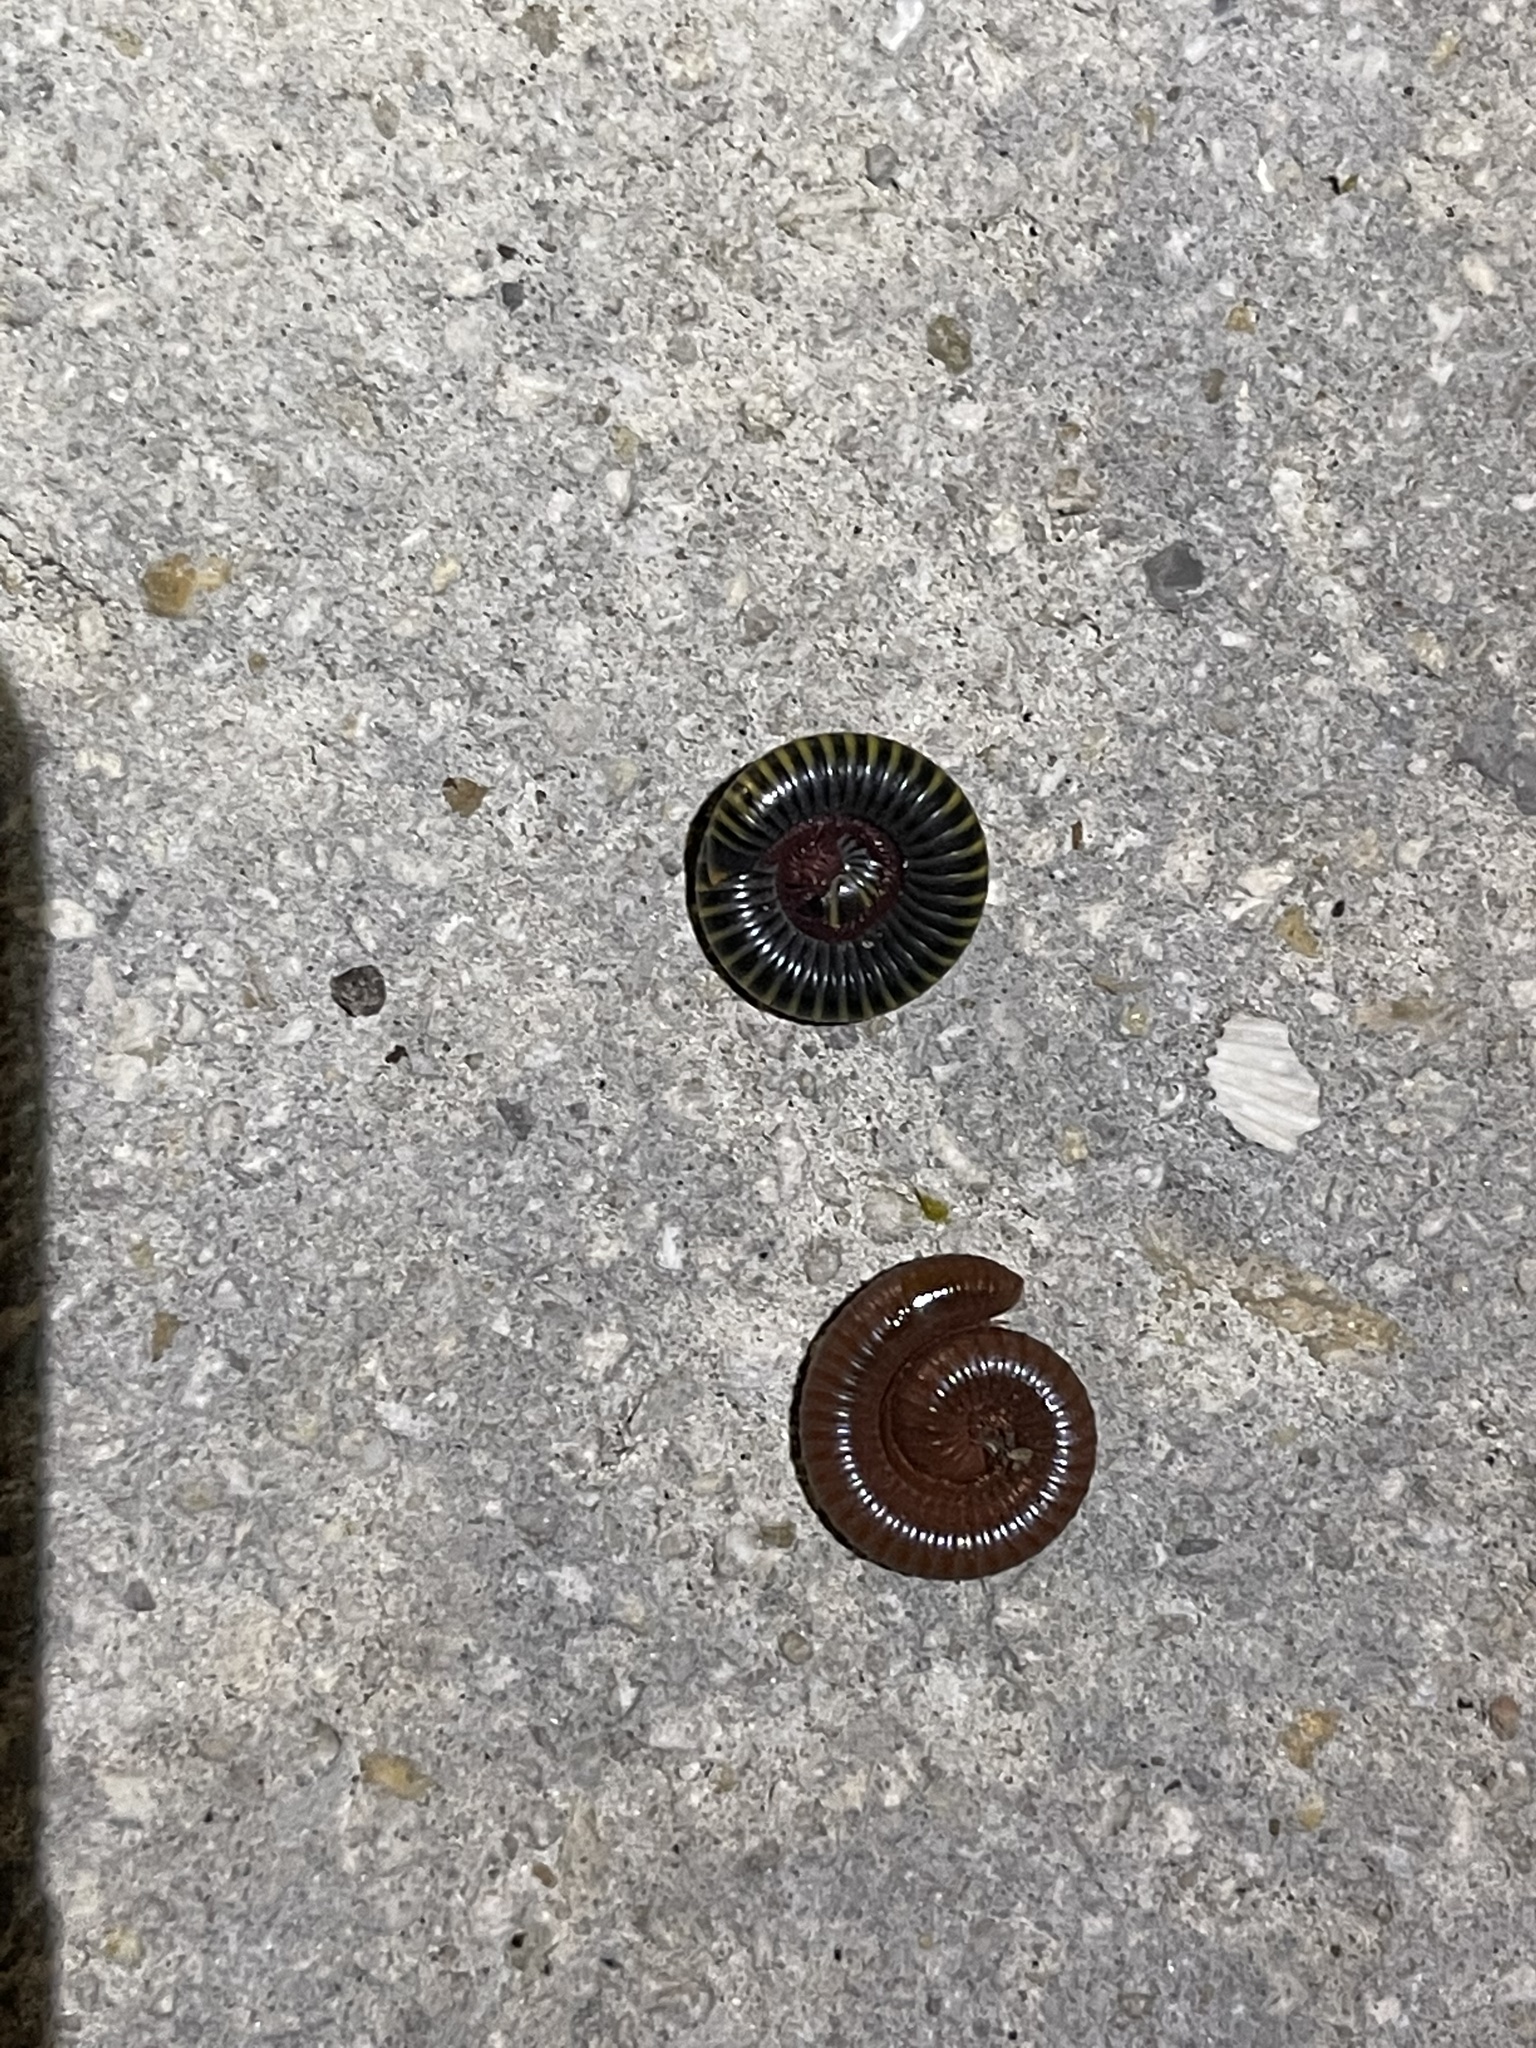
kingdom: Animalia
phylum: Arthropoda
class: Diplopoda
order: Spirobolida
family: Rhinocricidae
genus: Anadenobolus
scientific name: Anadenobolus monilicornis
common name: Caribbean millipede
